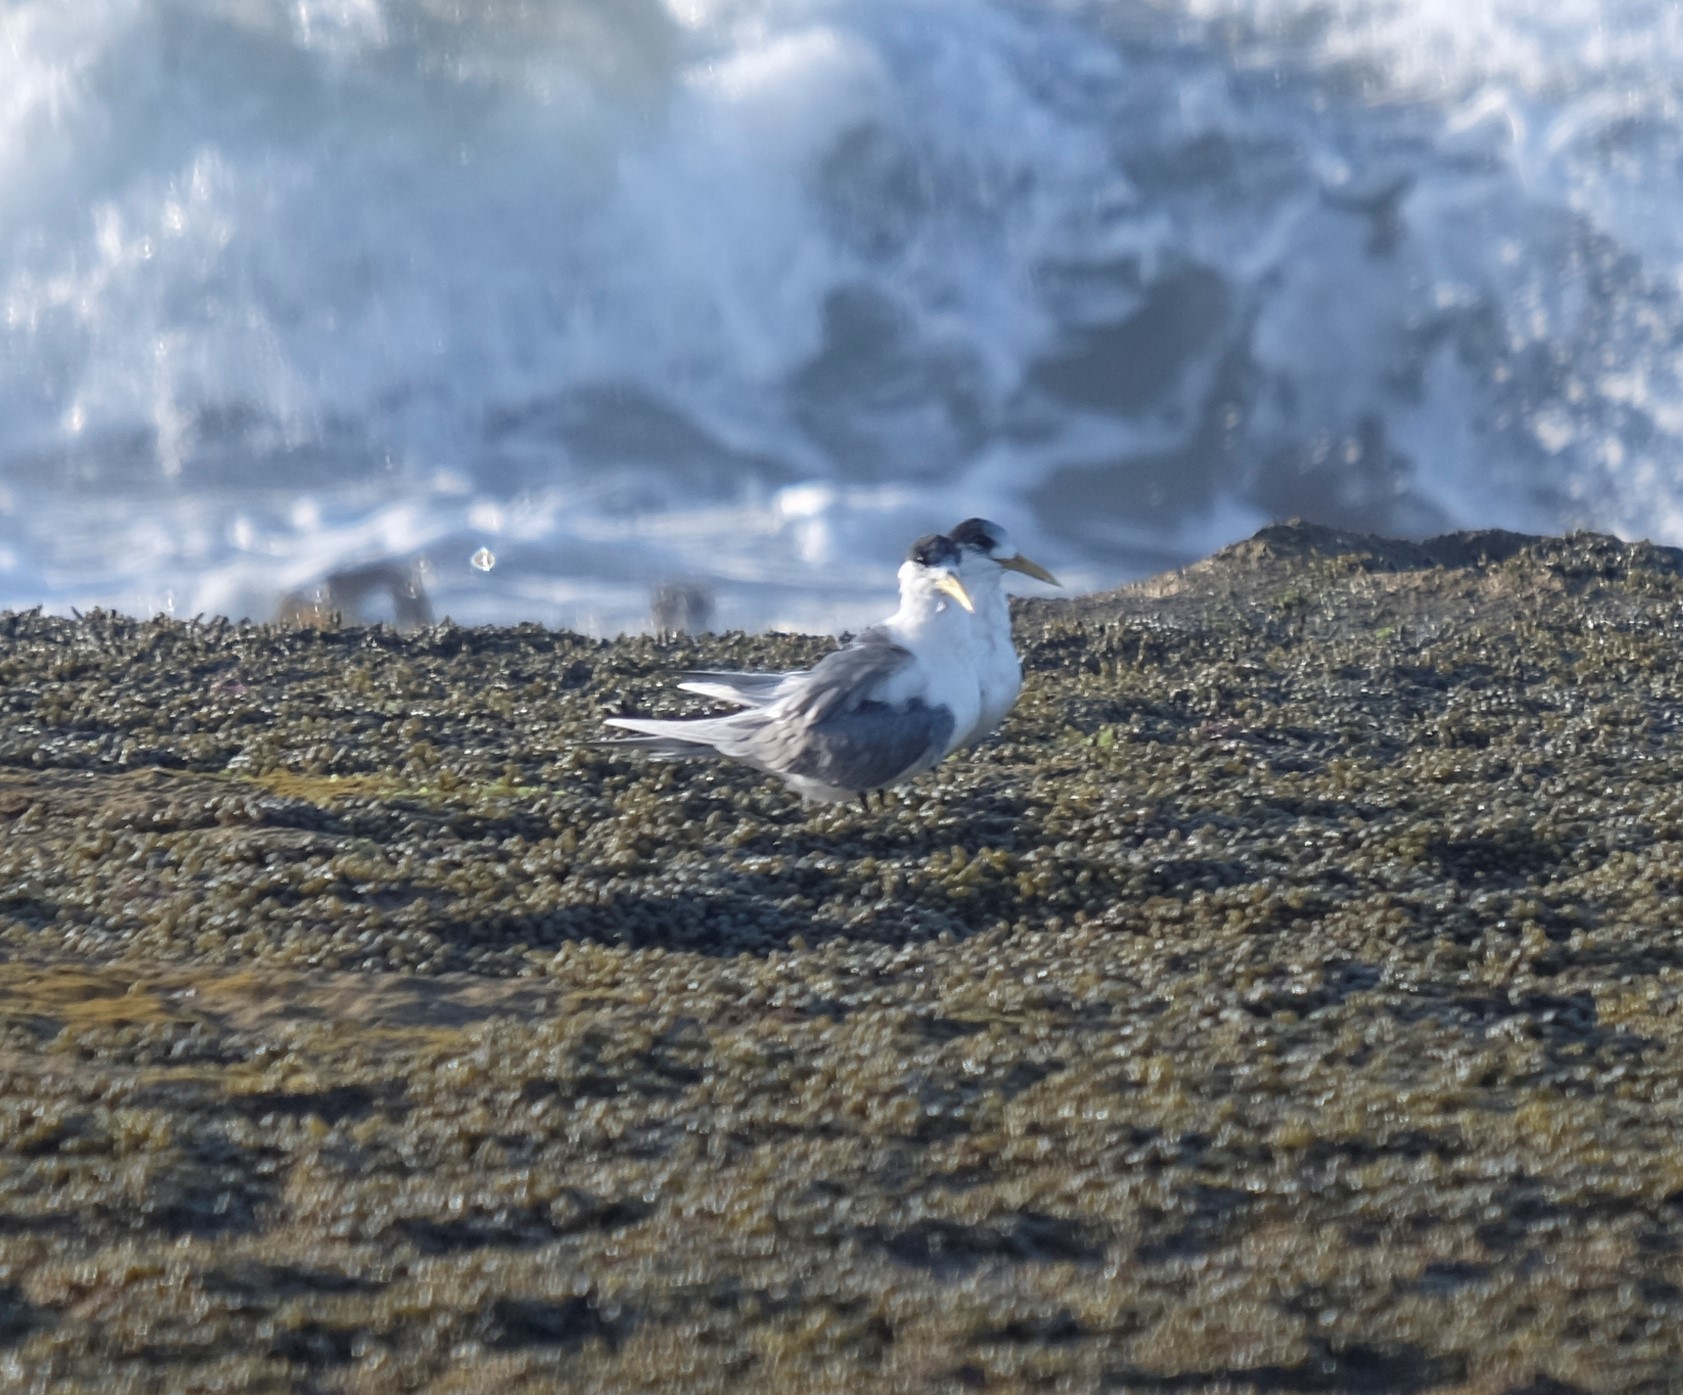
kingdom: Animalia
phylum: Chordata
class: Aves
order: Charadriiformes
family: Laridae
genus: Thalasseus
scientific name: Thalasseus bergii
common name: Greater crested tern
